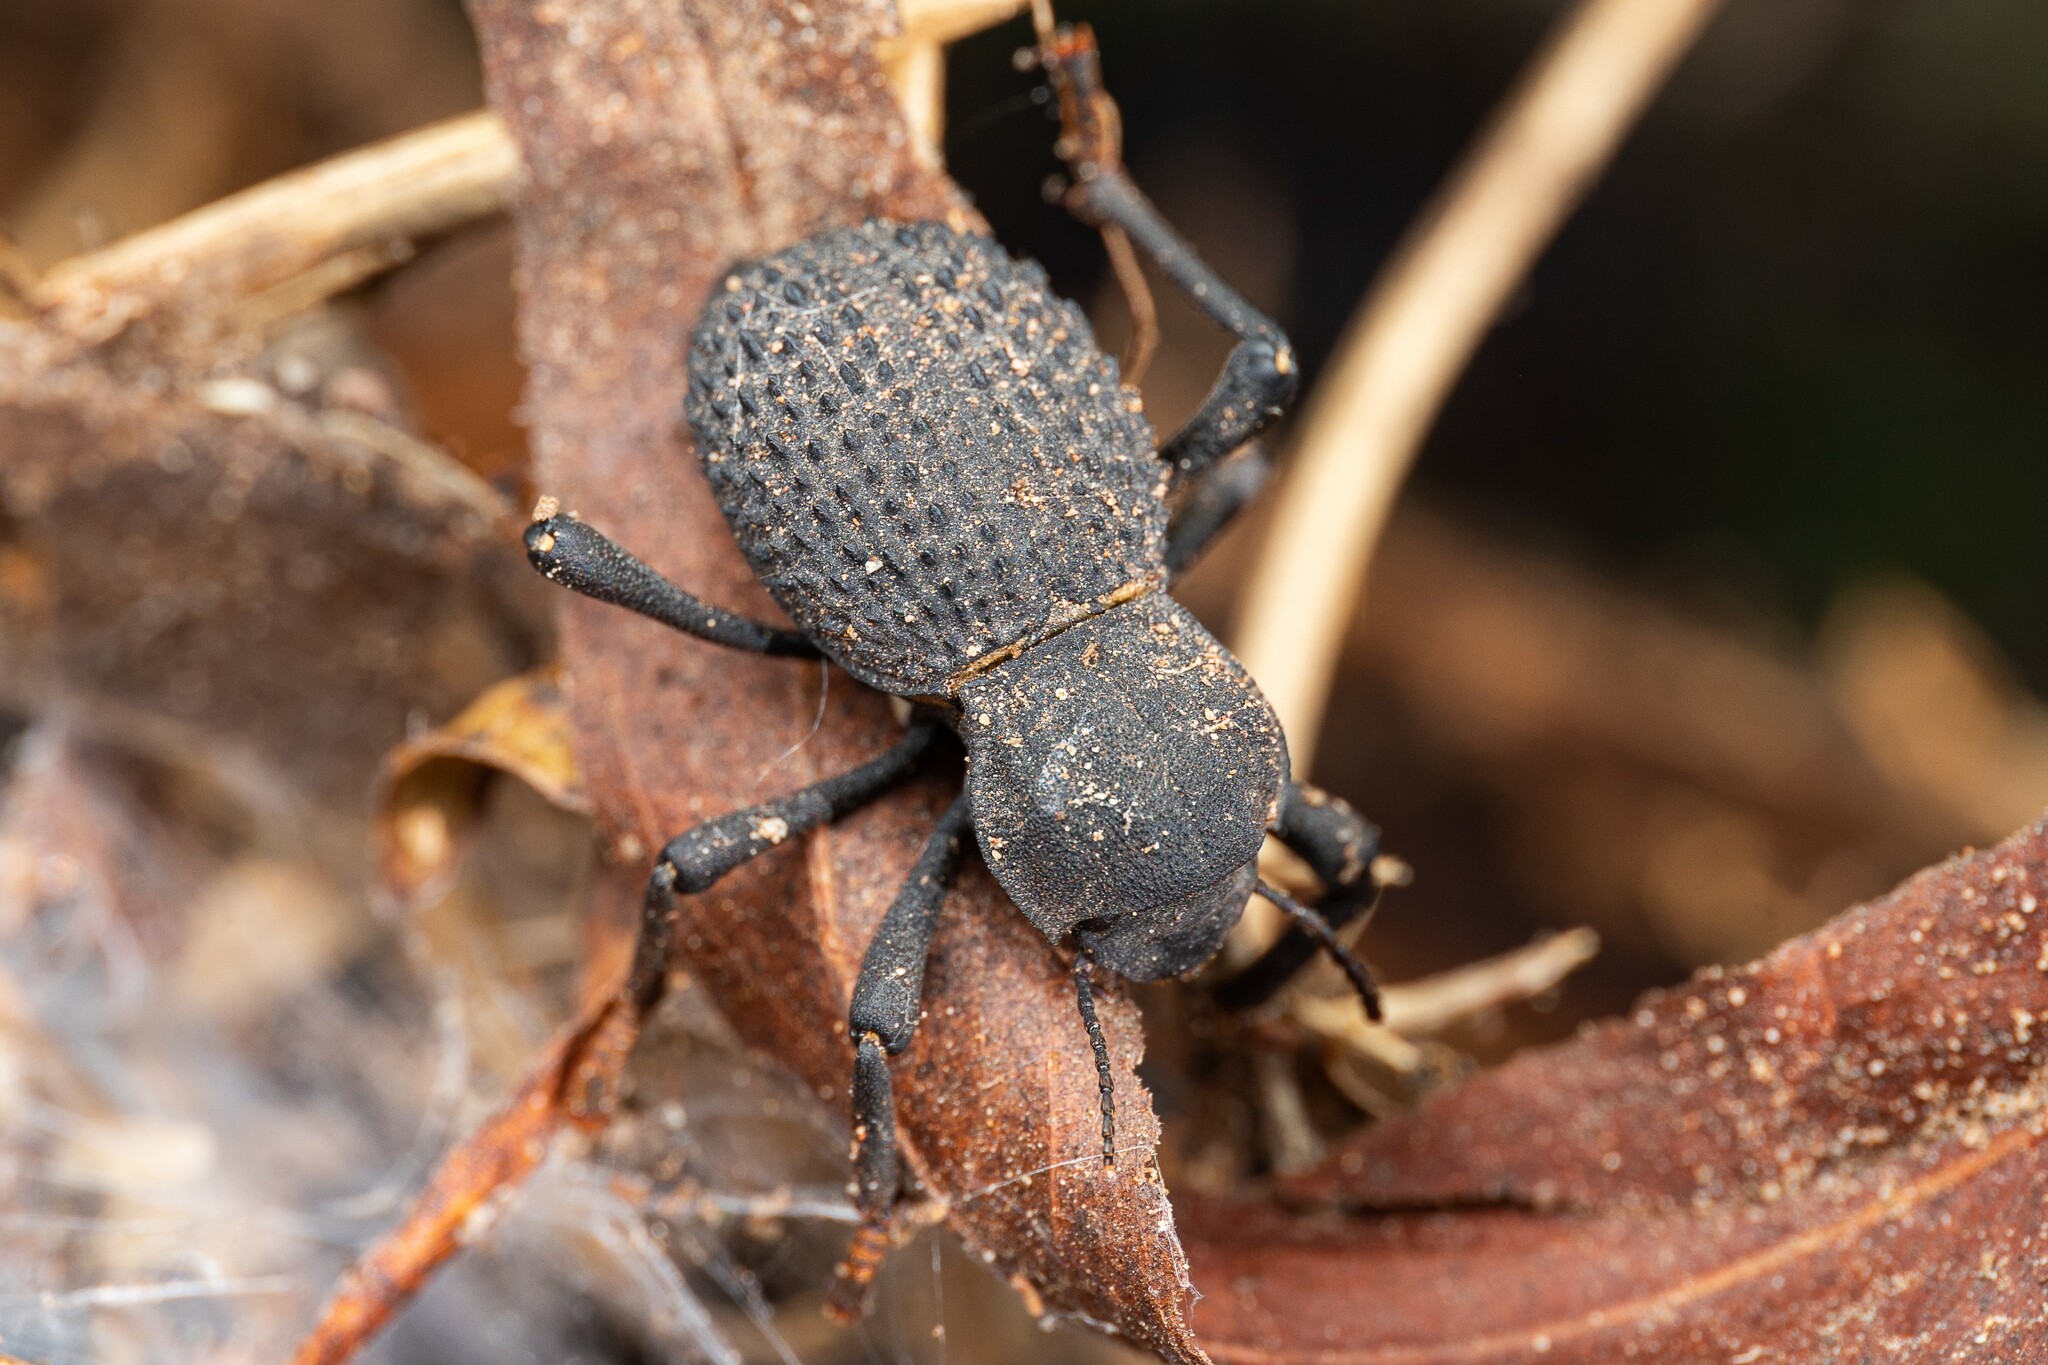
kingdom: Animalia
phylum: Arthropoda
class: Insecta
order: Coleoptera
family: Tenebrionidae
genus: Asbolus
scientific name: Asbolus verrucosus
